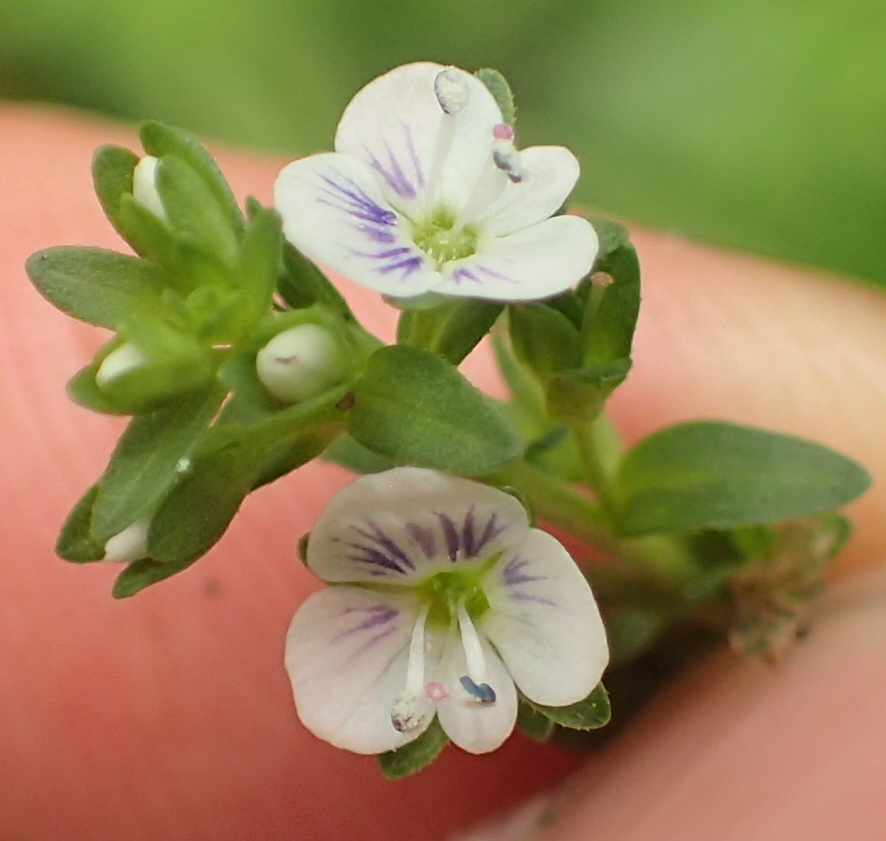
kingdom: Plantae
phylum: Tracheophyta
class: Magnoliopsida
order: Lamiales
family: Plantaginaceae
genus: Veronica
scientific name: Veronica serpyllifolia
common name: Thyme-leaved speedwell
